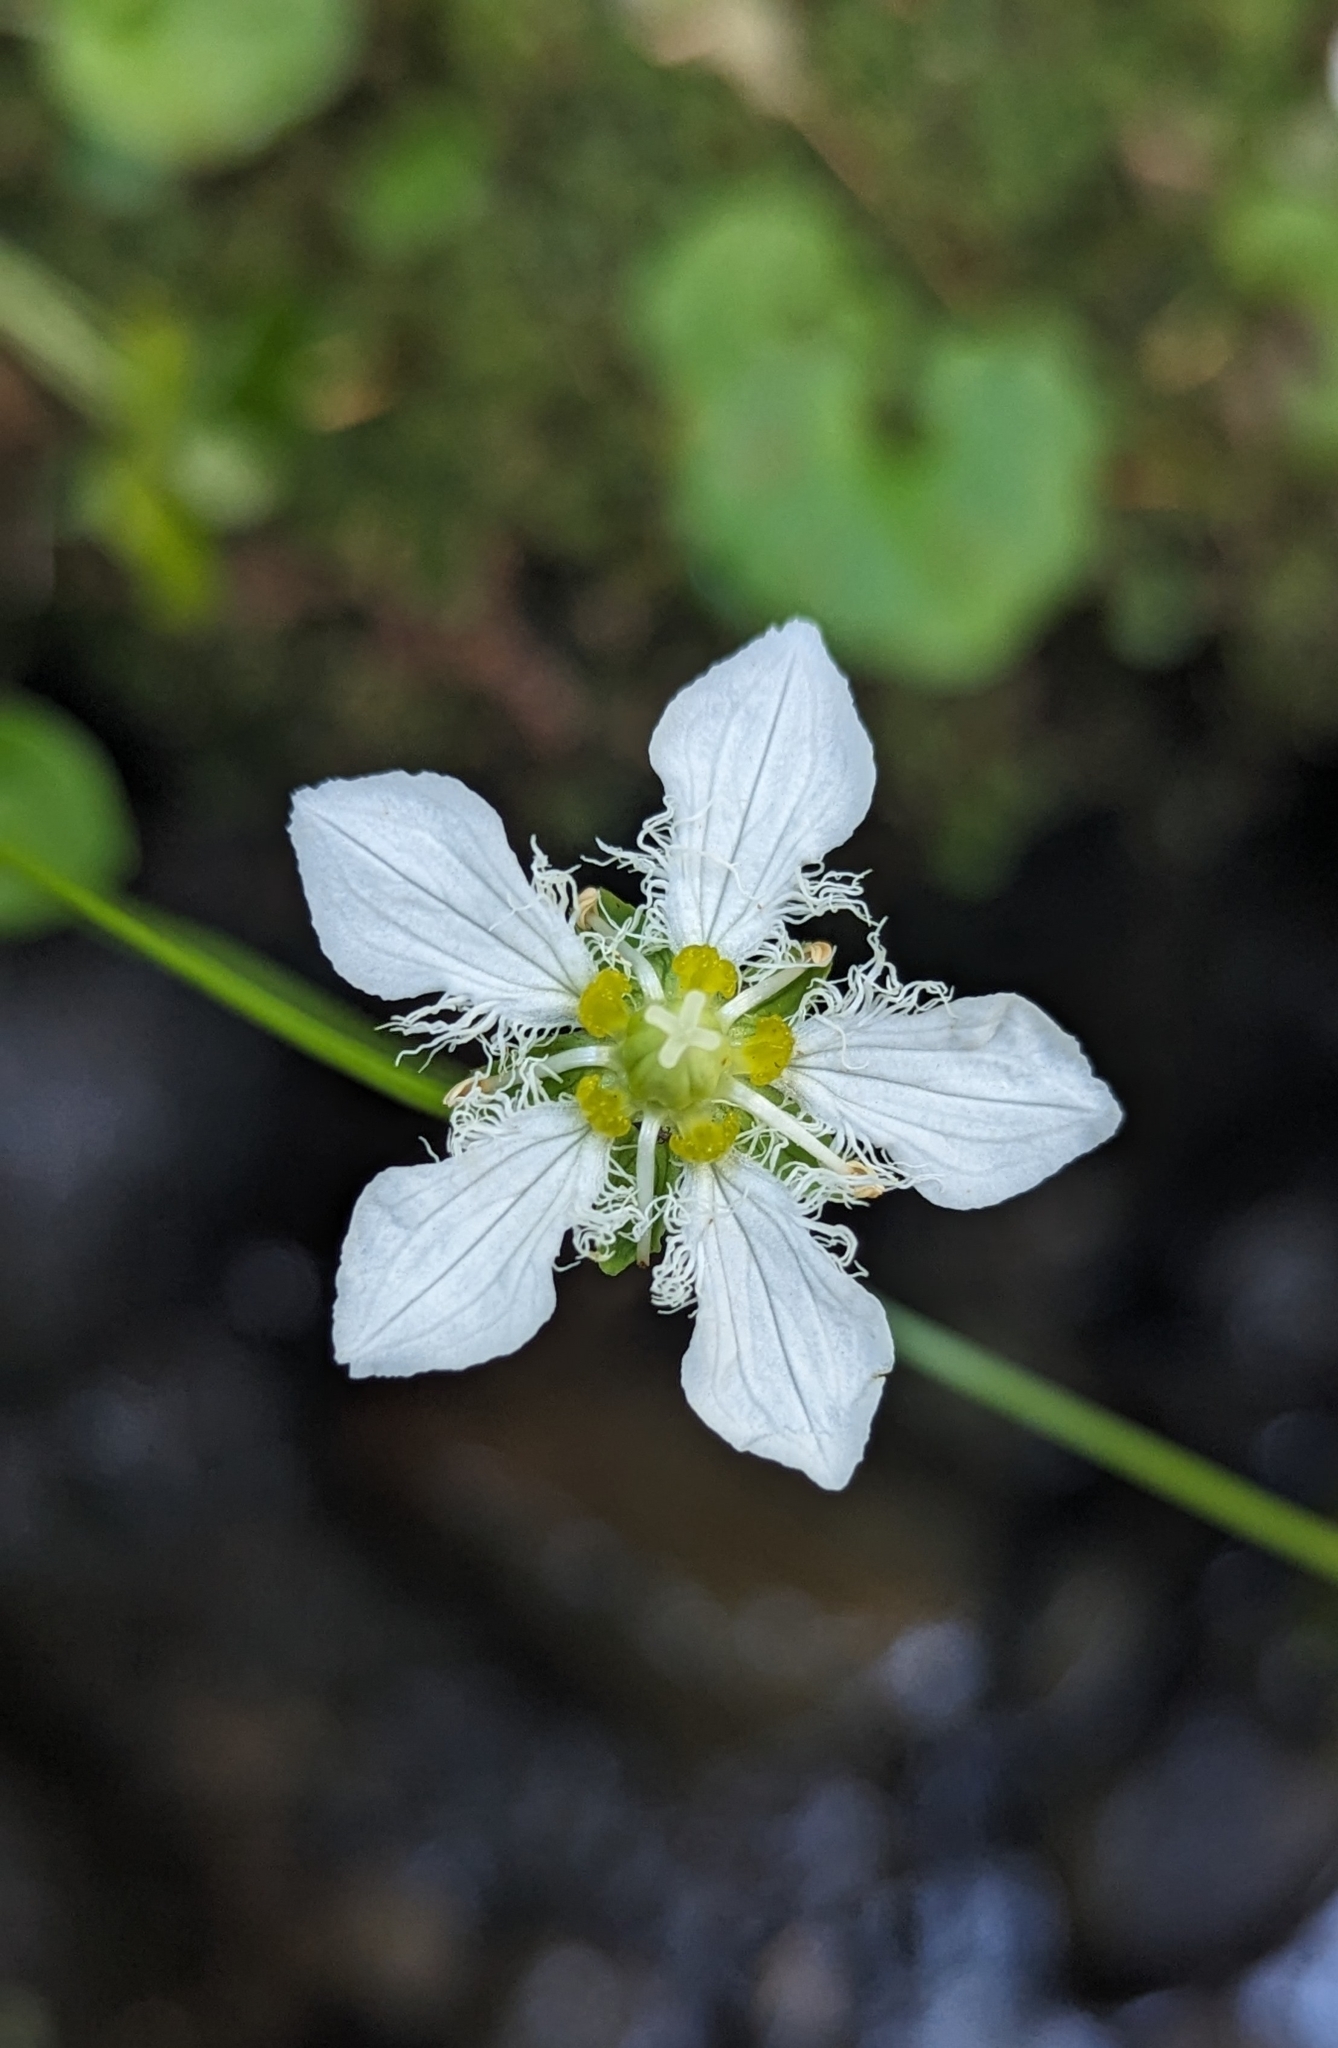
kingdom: Plantae
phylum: Tracheophyta
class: Magnoliopsida
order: Celastrales
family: Parnassiaceae
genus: Parnassia
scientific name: Parnassia fimbriata
